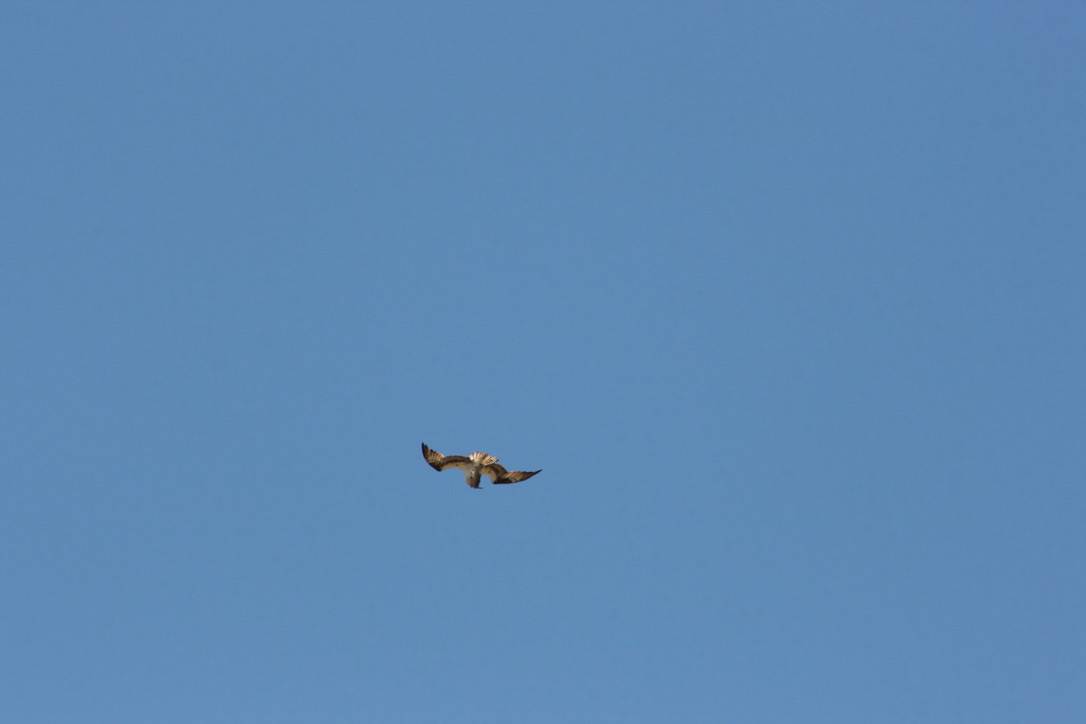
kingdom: Animalia
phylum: Chordata
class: Aves
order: Accipitriformes
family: Pandionidae
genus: Pandion
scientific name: Pandion haliaetus
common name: Osprey
